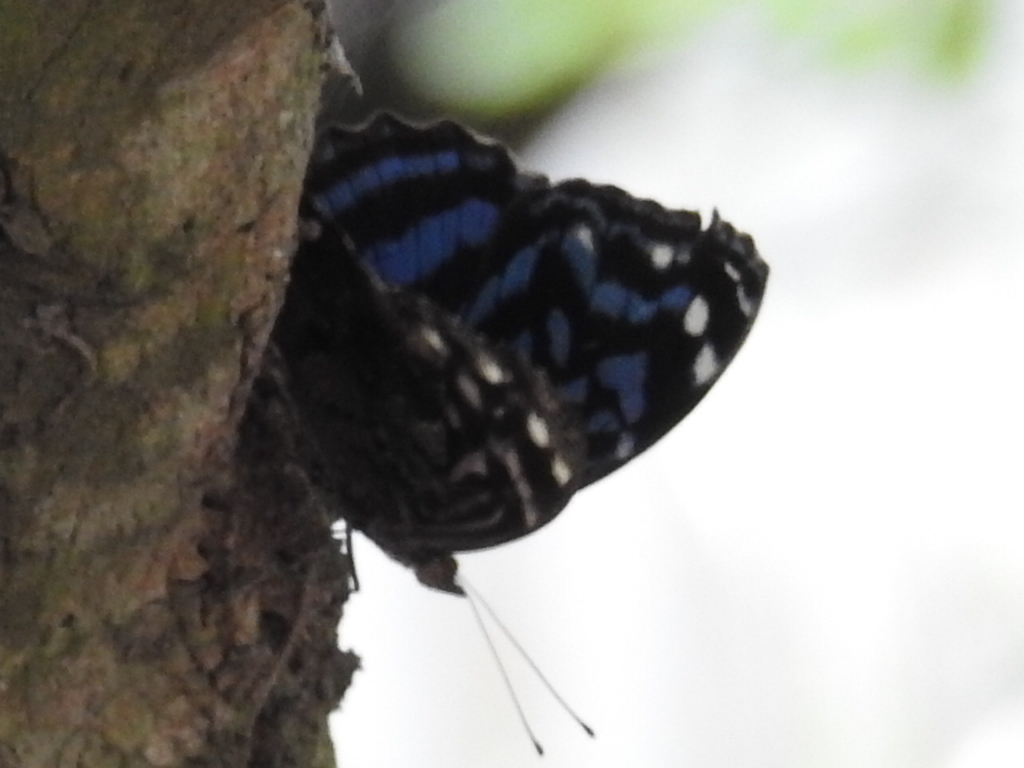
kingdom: Animalia
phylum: Arthropoda
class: Insecta
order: Lepidoptera
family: Nymphalidae
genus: Myscelia
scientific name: Myscelia ethusa
